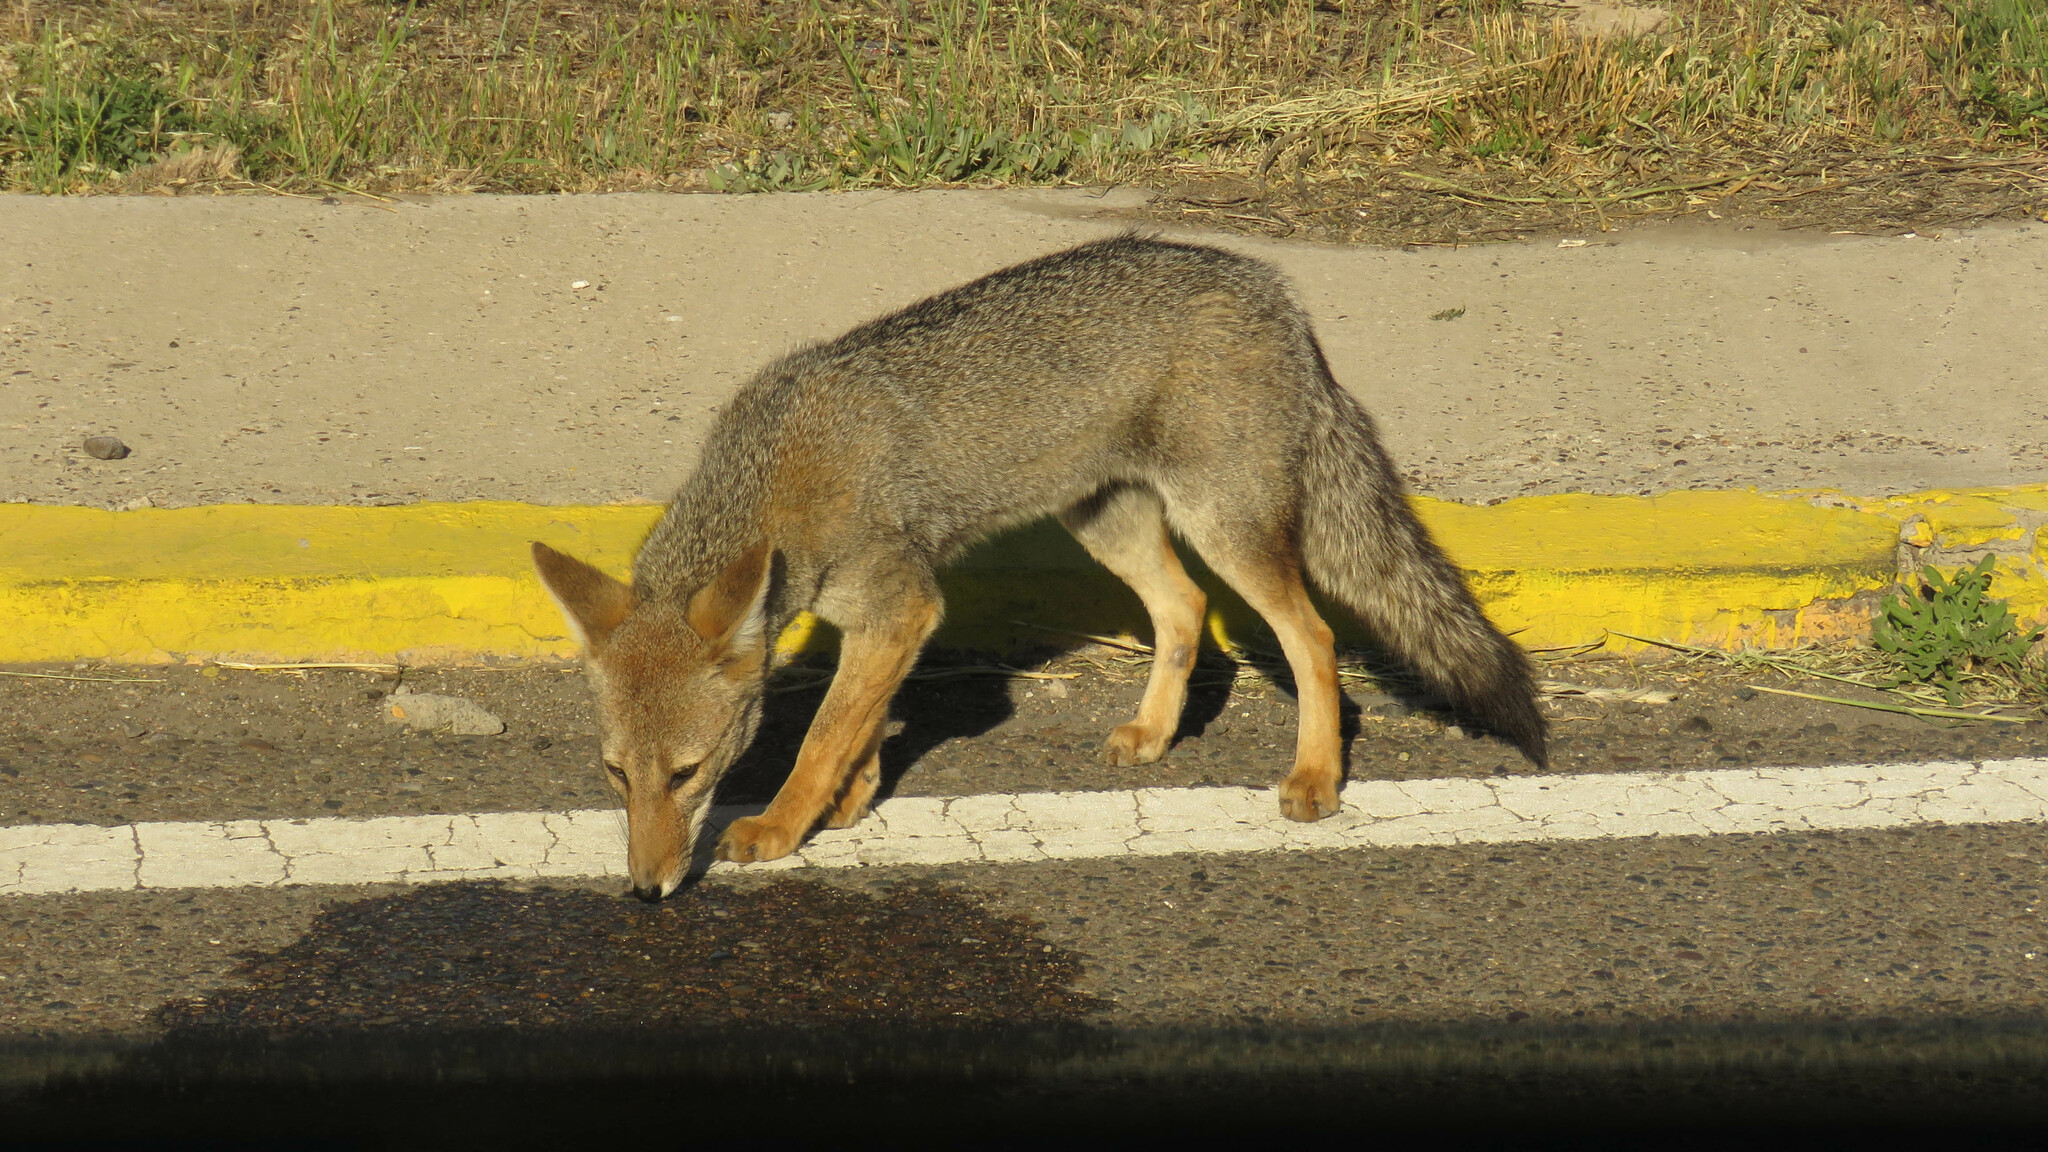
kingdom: Animalia
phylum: Chordata
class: Mammalia
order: Carnivora
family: Canidae
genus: Lycalopex
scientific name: Lycalopex gymnocercus
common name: Pampas fox
